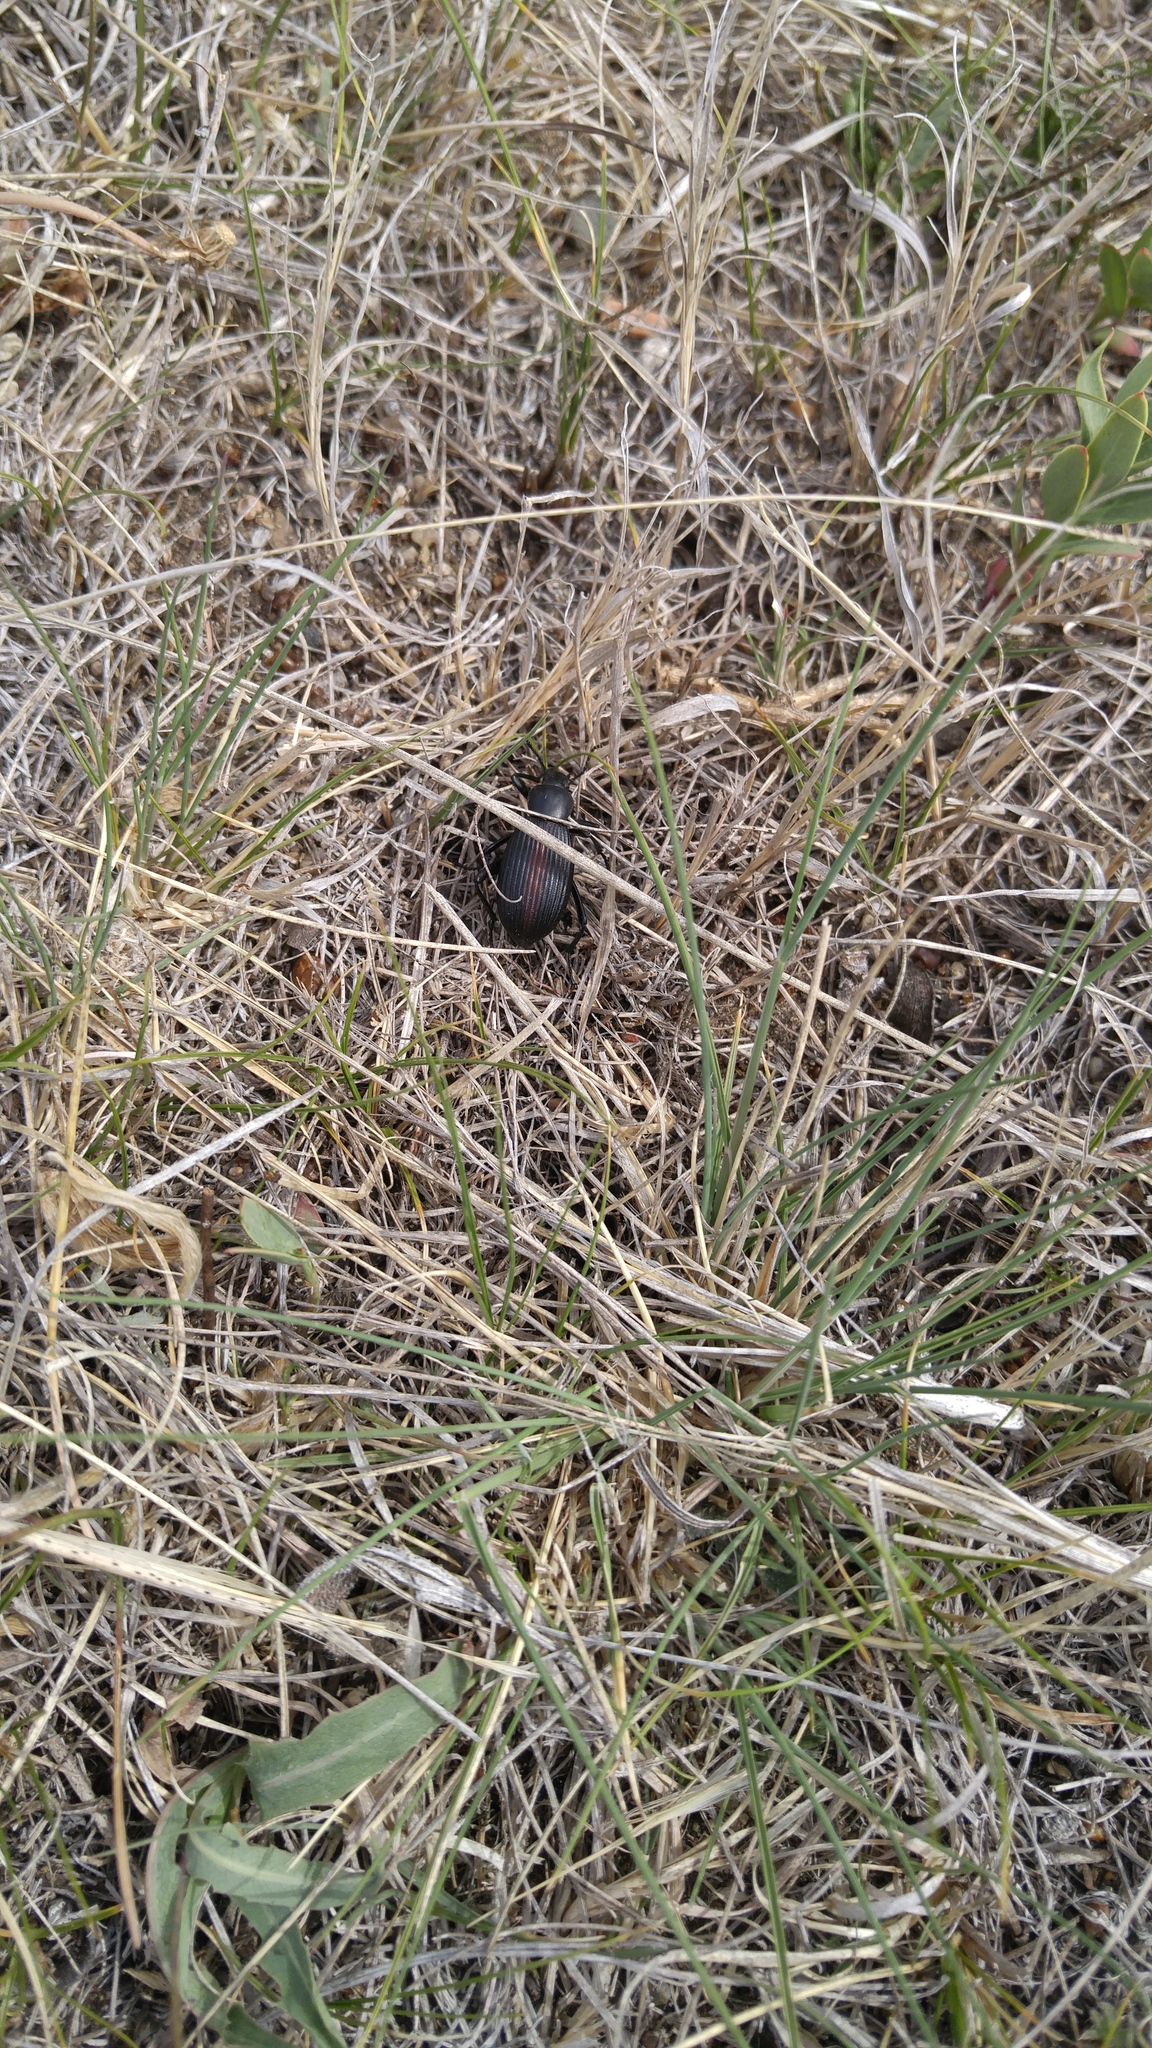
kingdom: Animalia
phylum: Arthropoda
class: Insecta
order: Coleoptera
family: Tenebrionidae
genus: Eleodes
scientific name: Eleodes hispilabris
